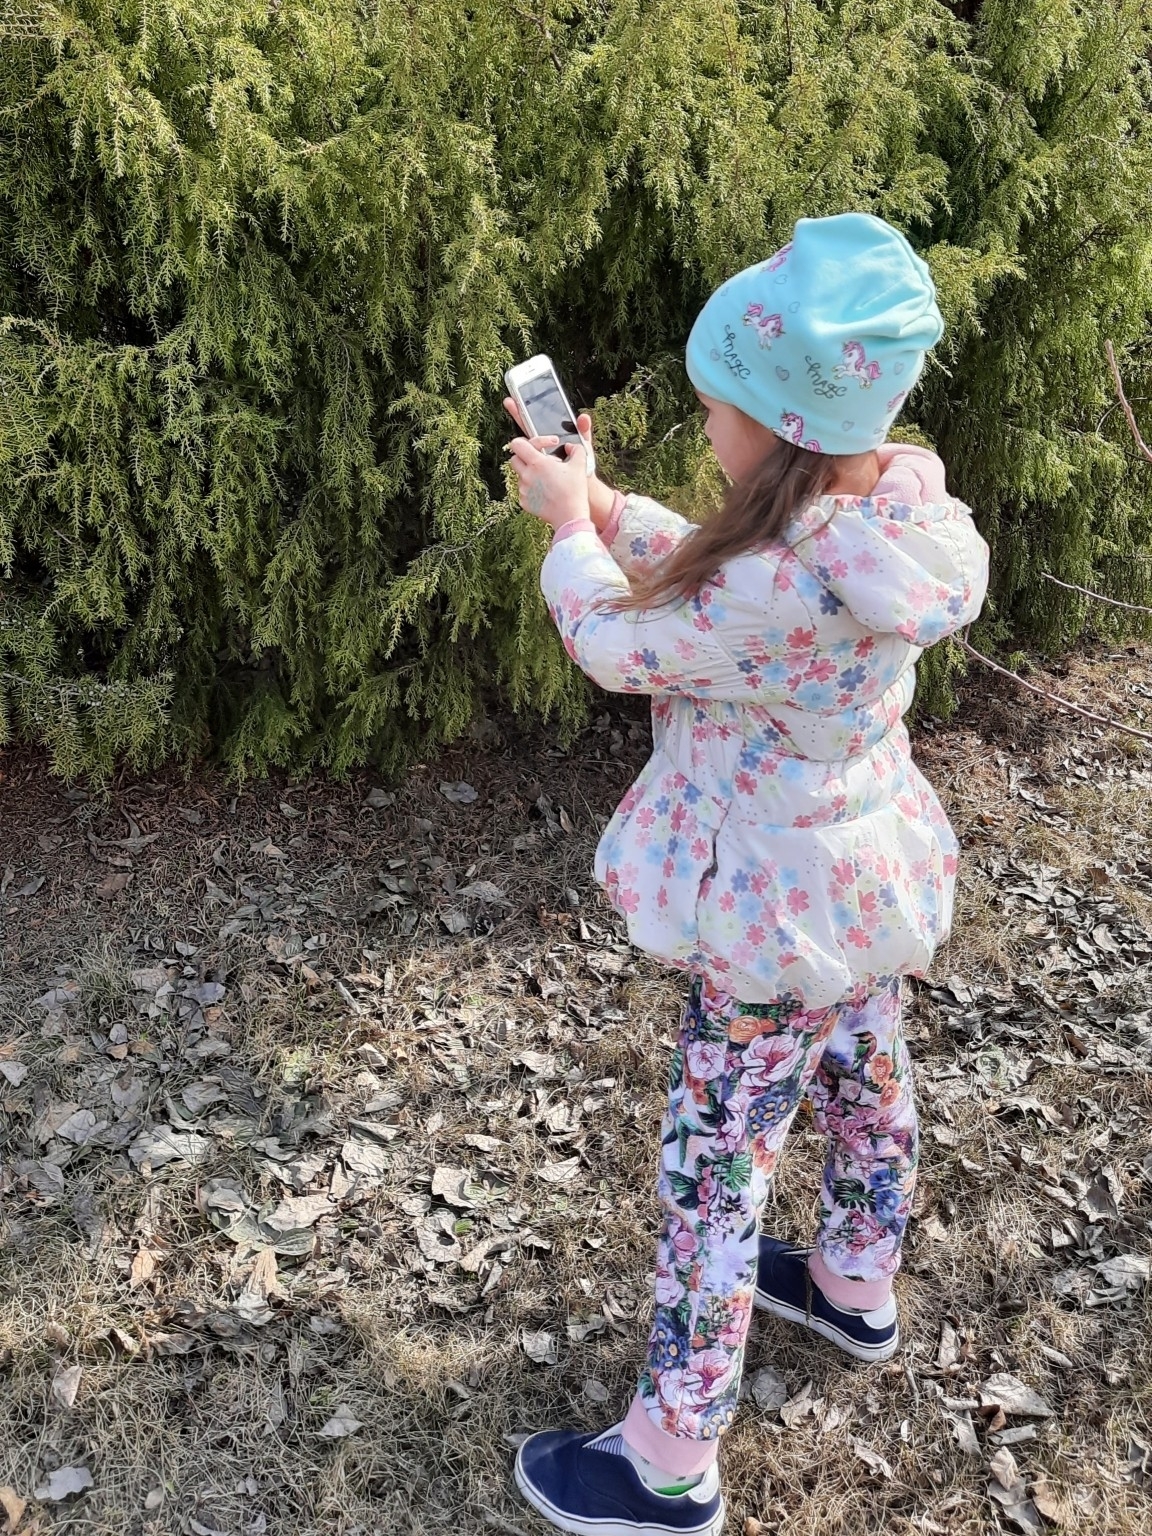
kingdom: Plantae
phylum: Tracheophyta
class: Pinopsida
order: Pinales
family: Cupressaceae
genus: Juniperus
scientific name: Juniperus communis
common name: Common juniper
